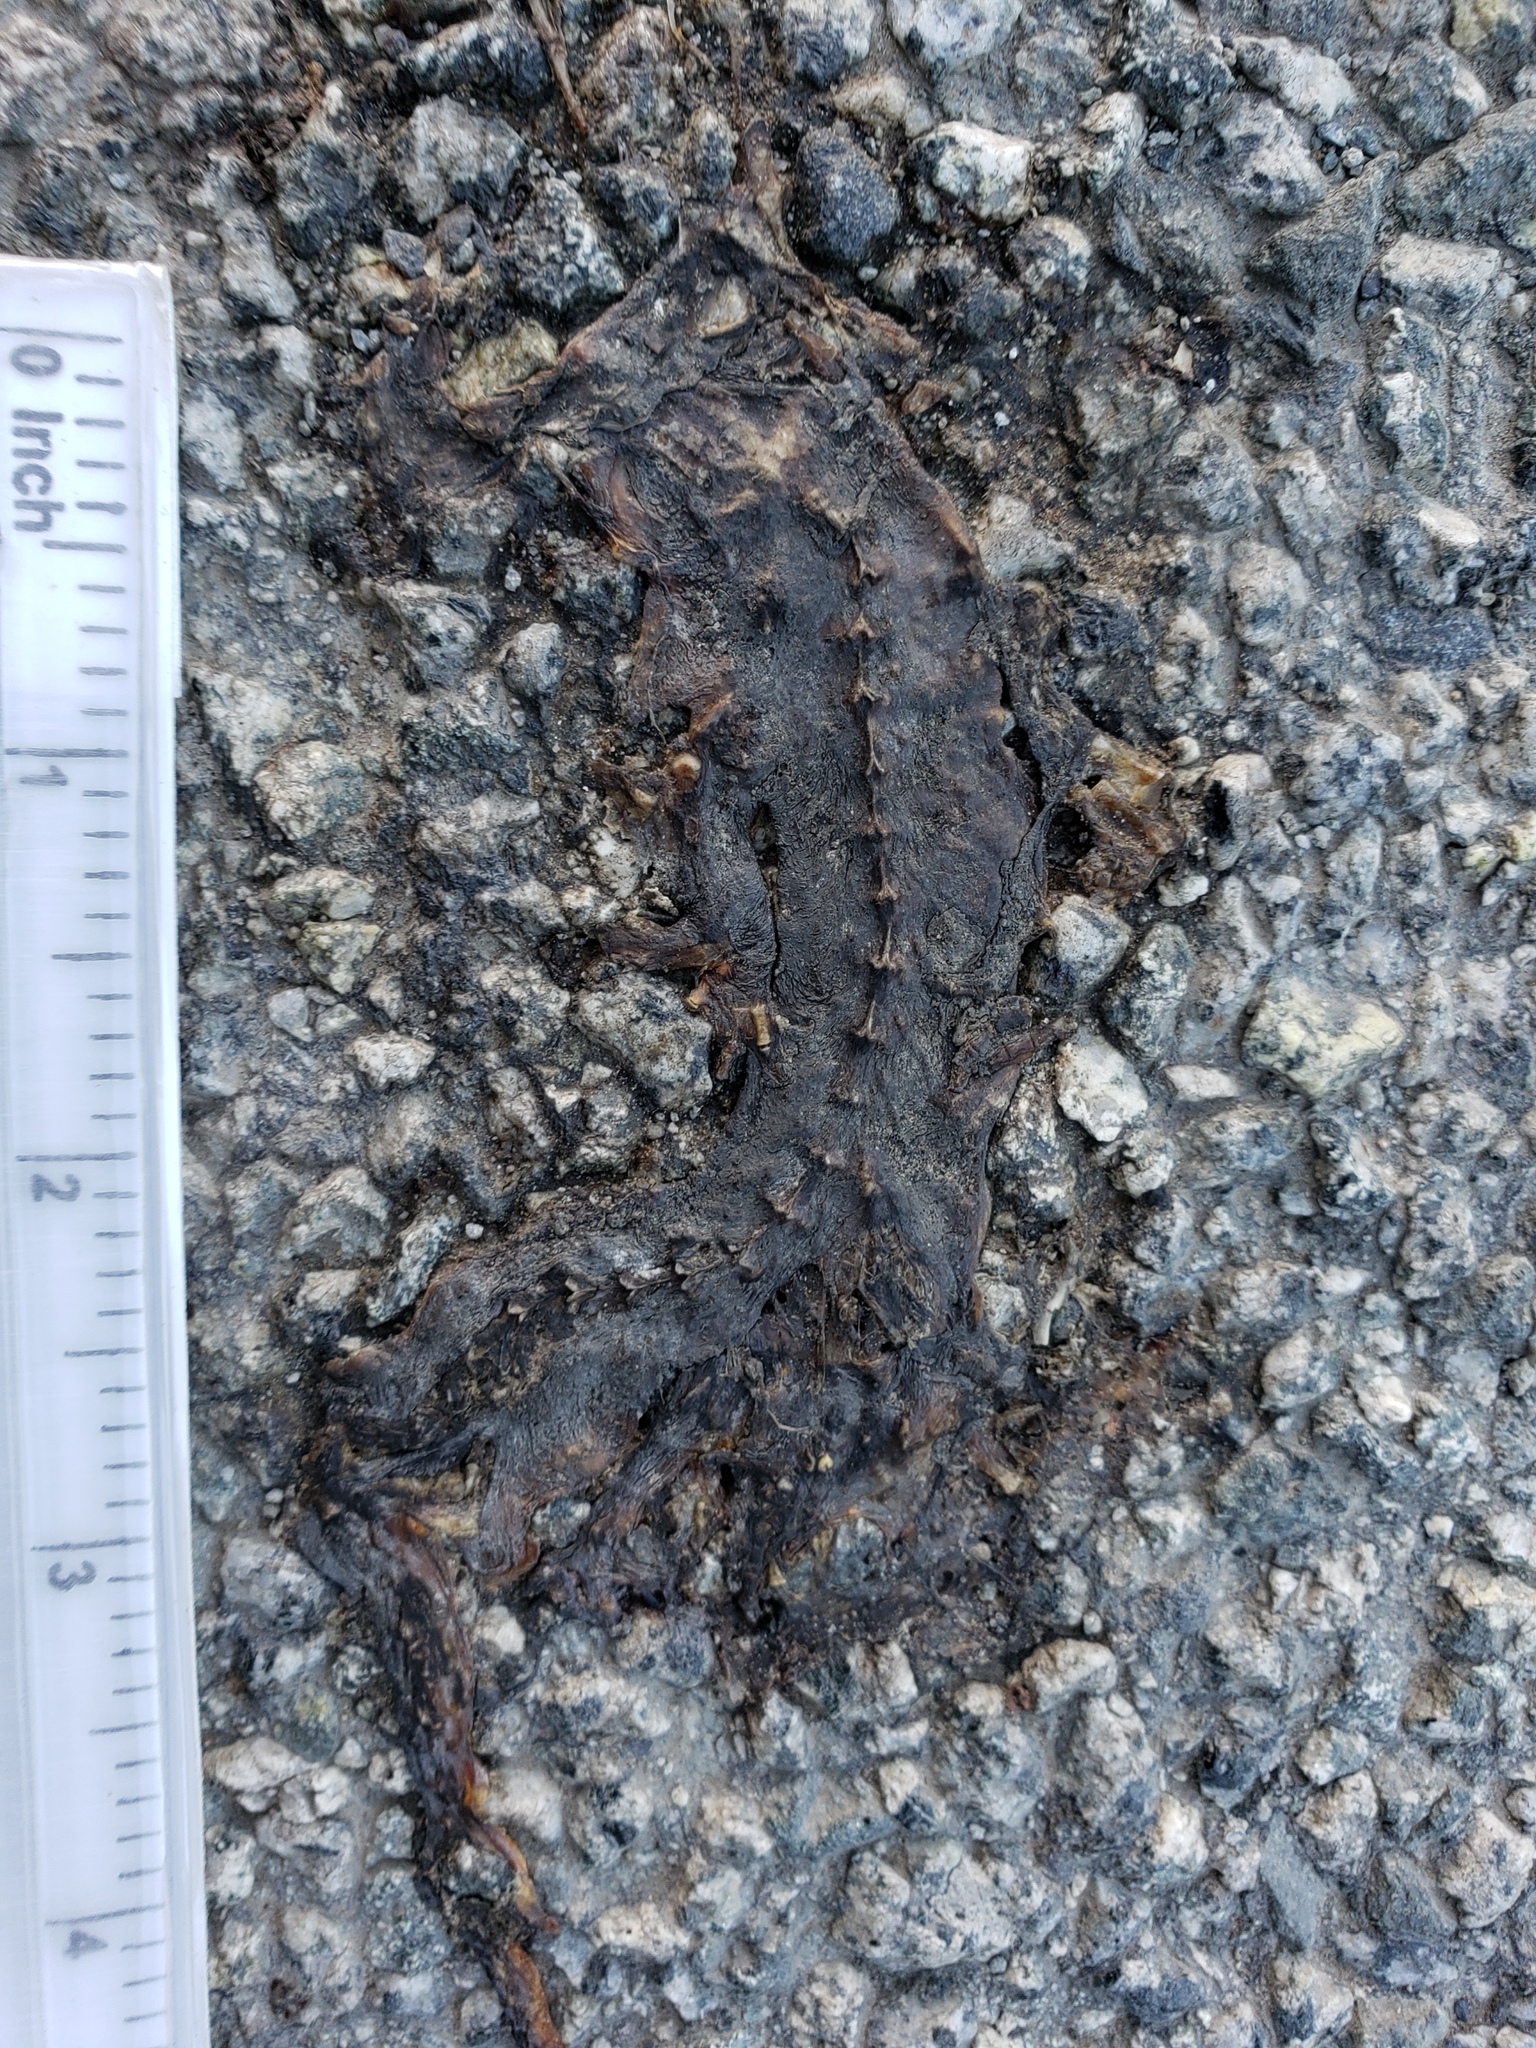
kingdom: Animalia
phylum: Chordata
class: Amphibia
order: Caudata
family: Salamandridae
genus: Taricha
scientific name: Taricha
